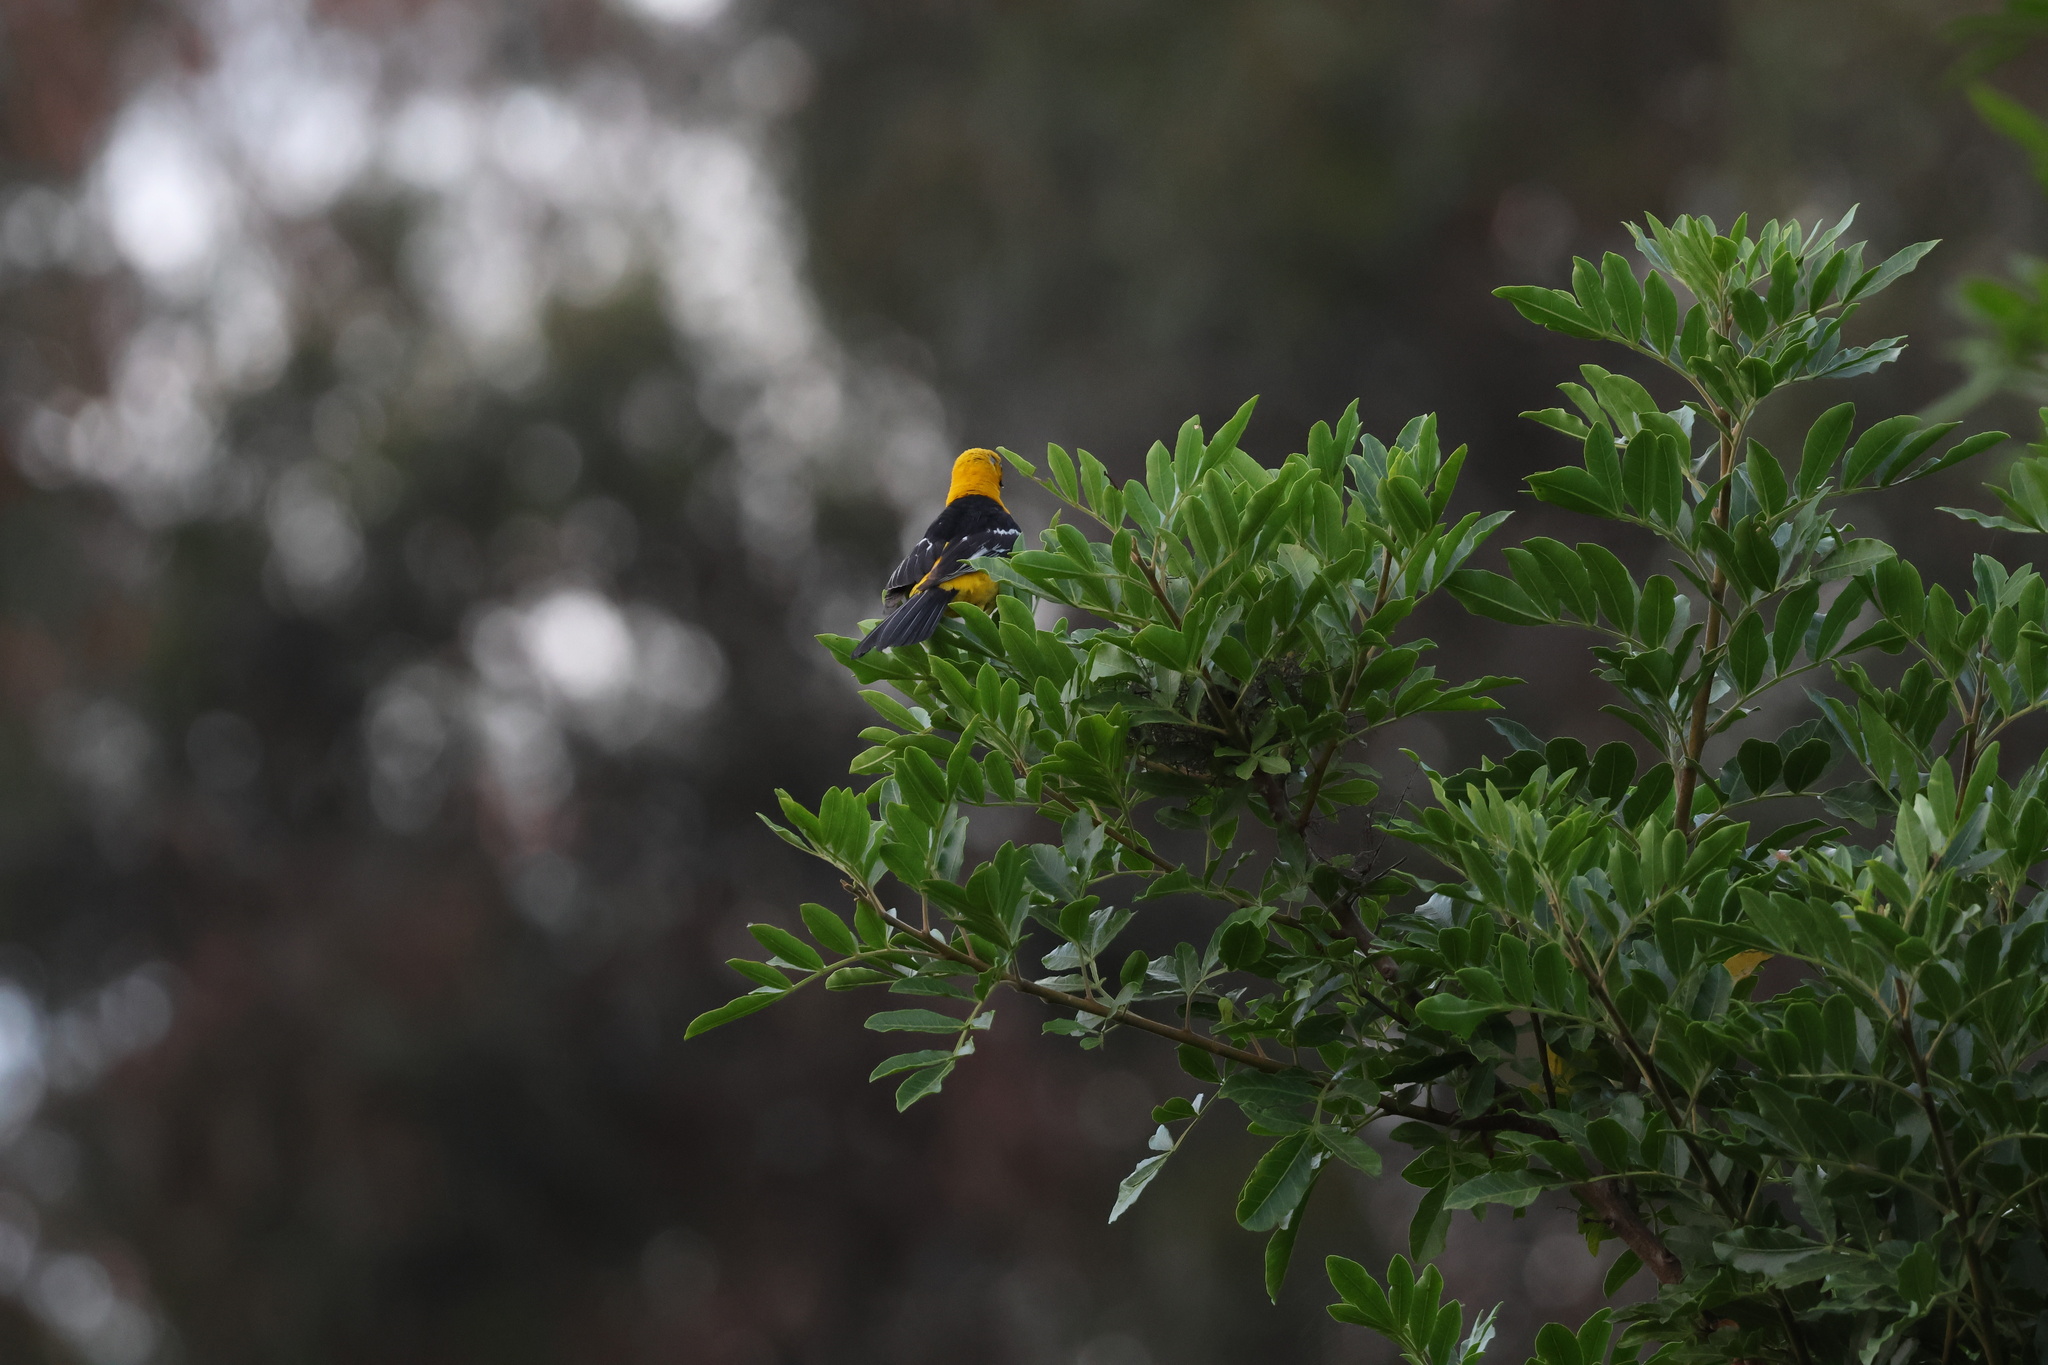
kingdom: Animalia
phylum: Chordata
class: Aves
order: Passeriformes
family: Icteridae
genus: Icterus
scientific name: Icterus cucullatus
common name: Hooded oriole
